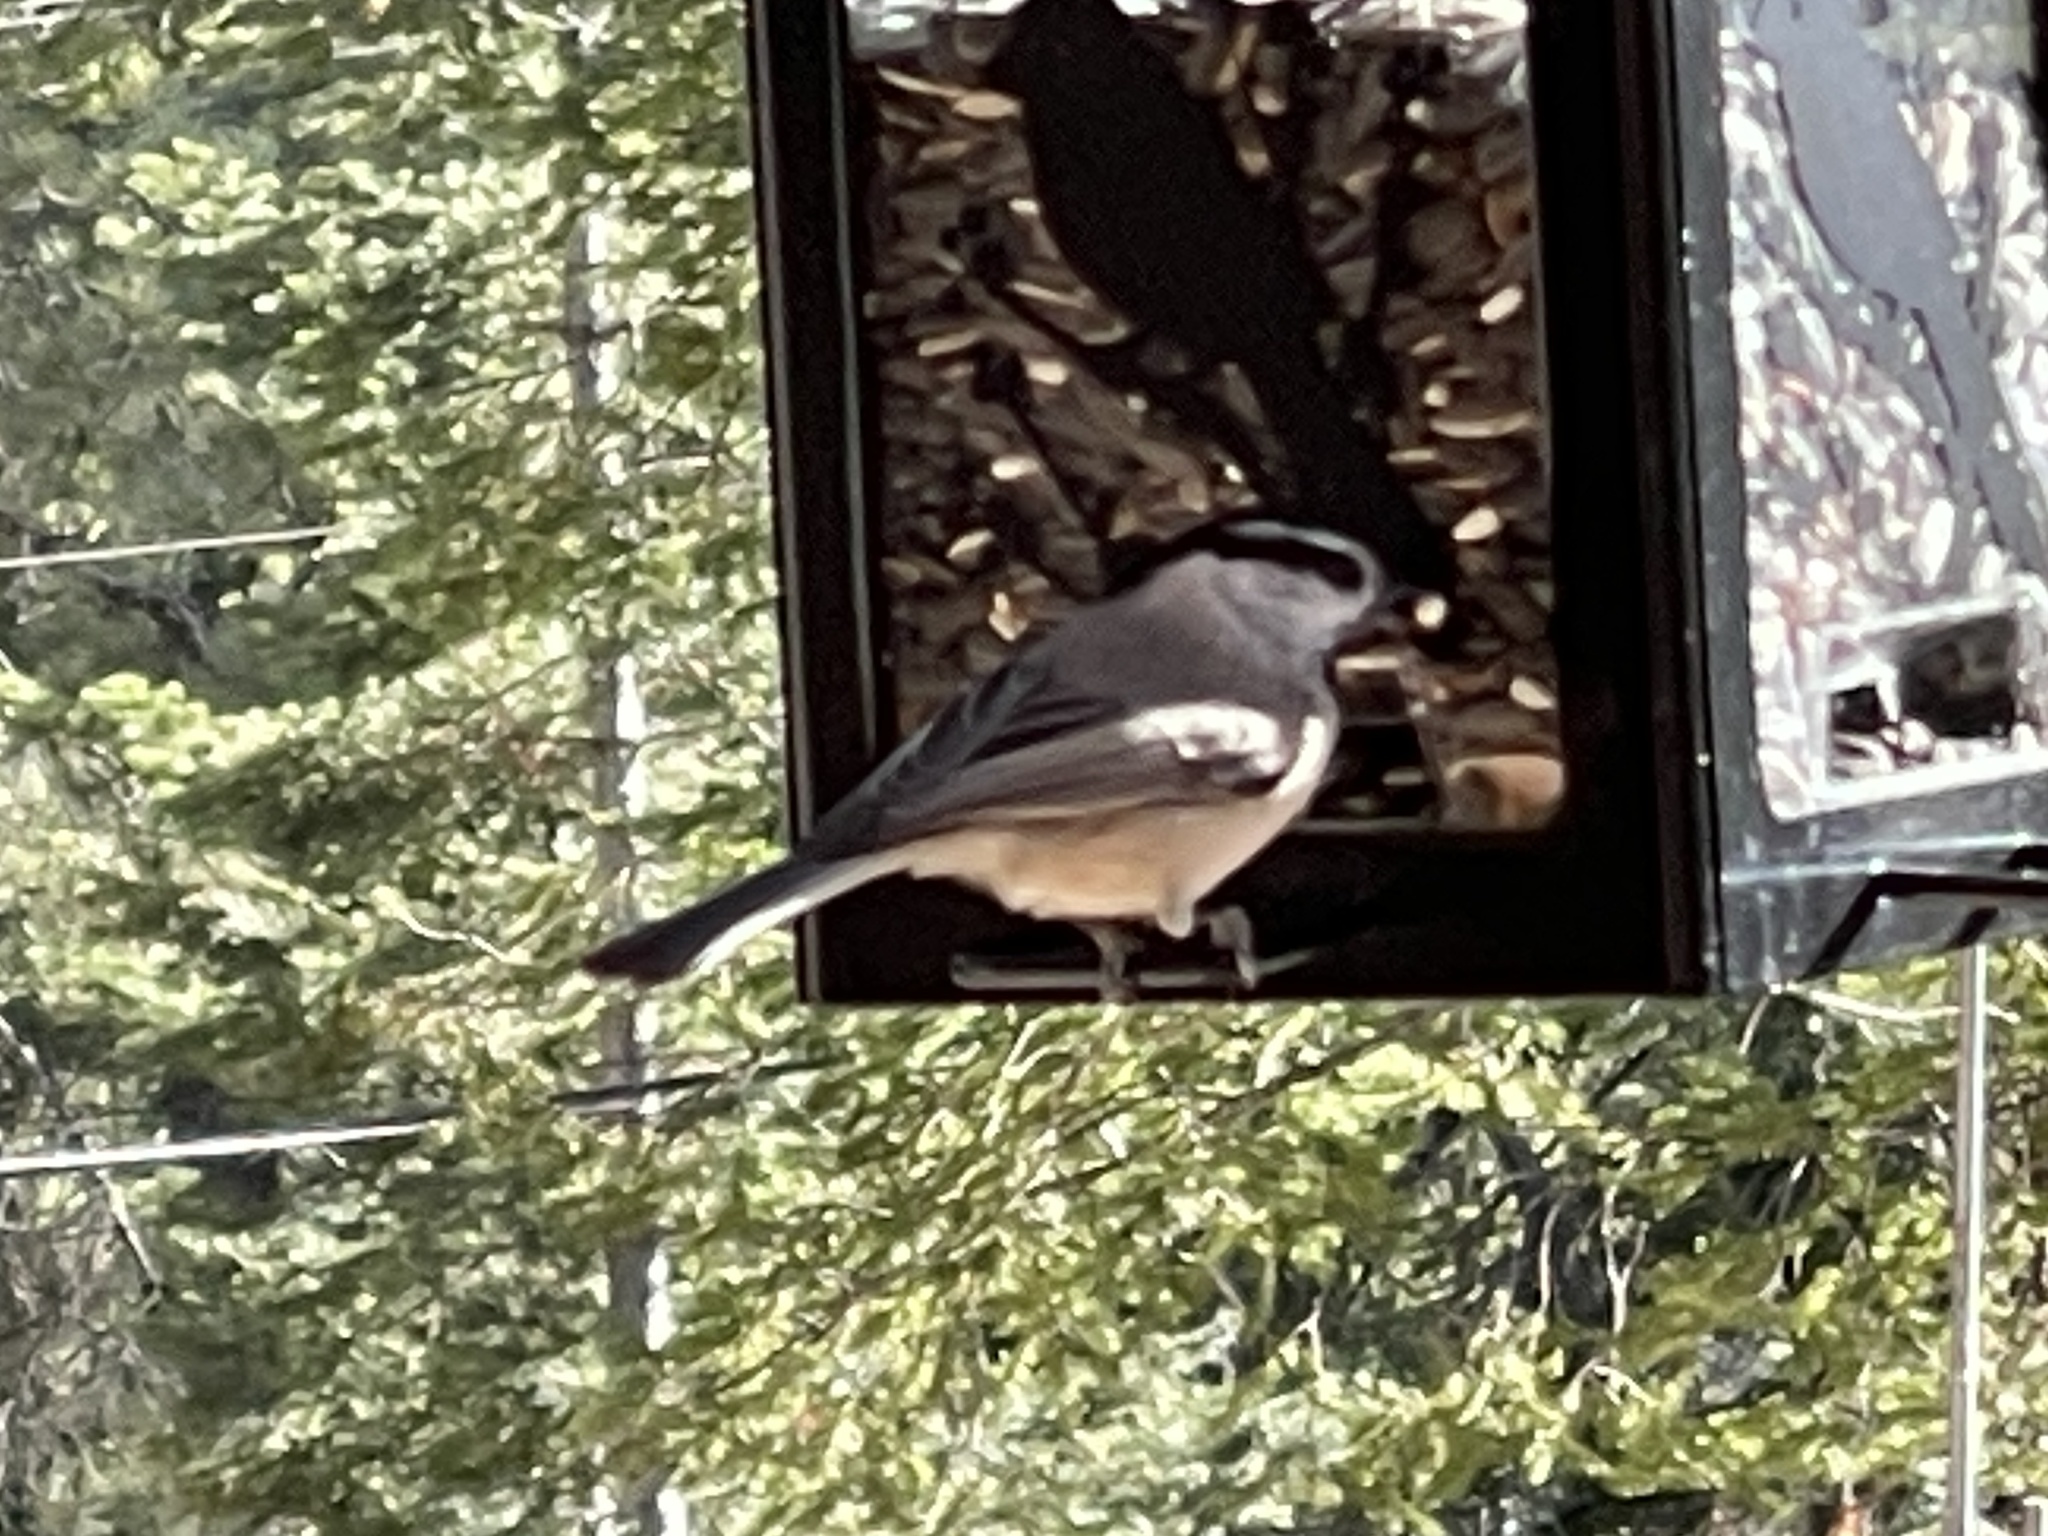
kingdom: Animalia
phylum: Chordata
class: Aves
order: Passeriformes
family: Paridae
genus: Poecile
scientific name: Poecile gambeli
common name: Mountain chickadee
